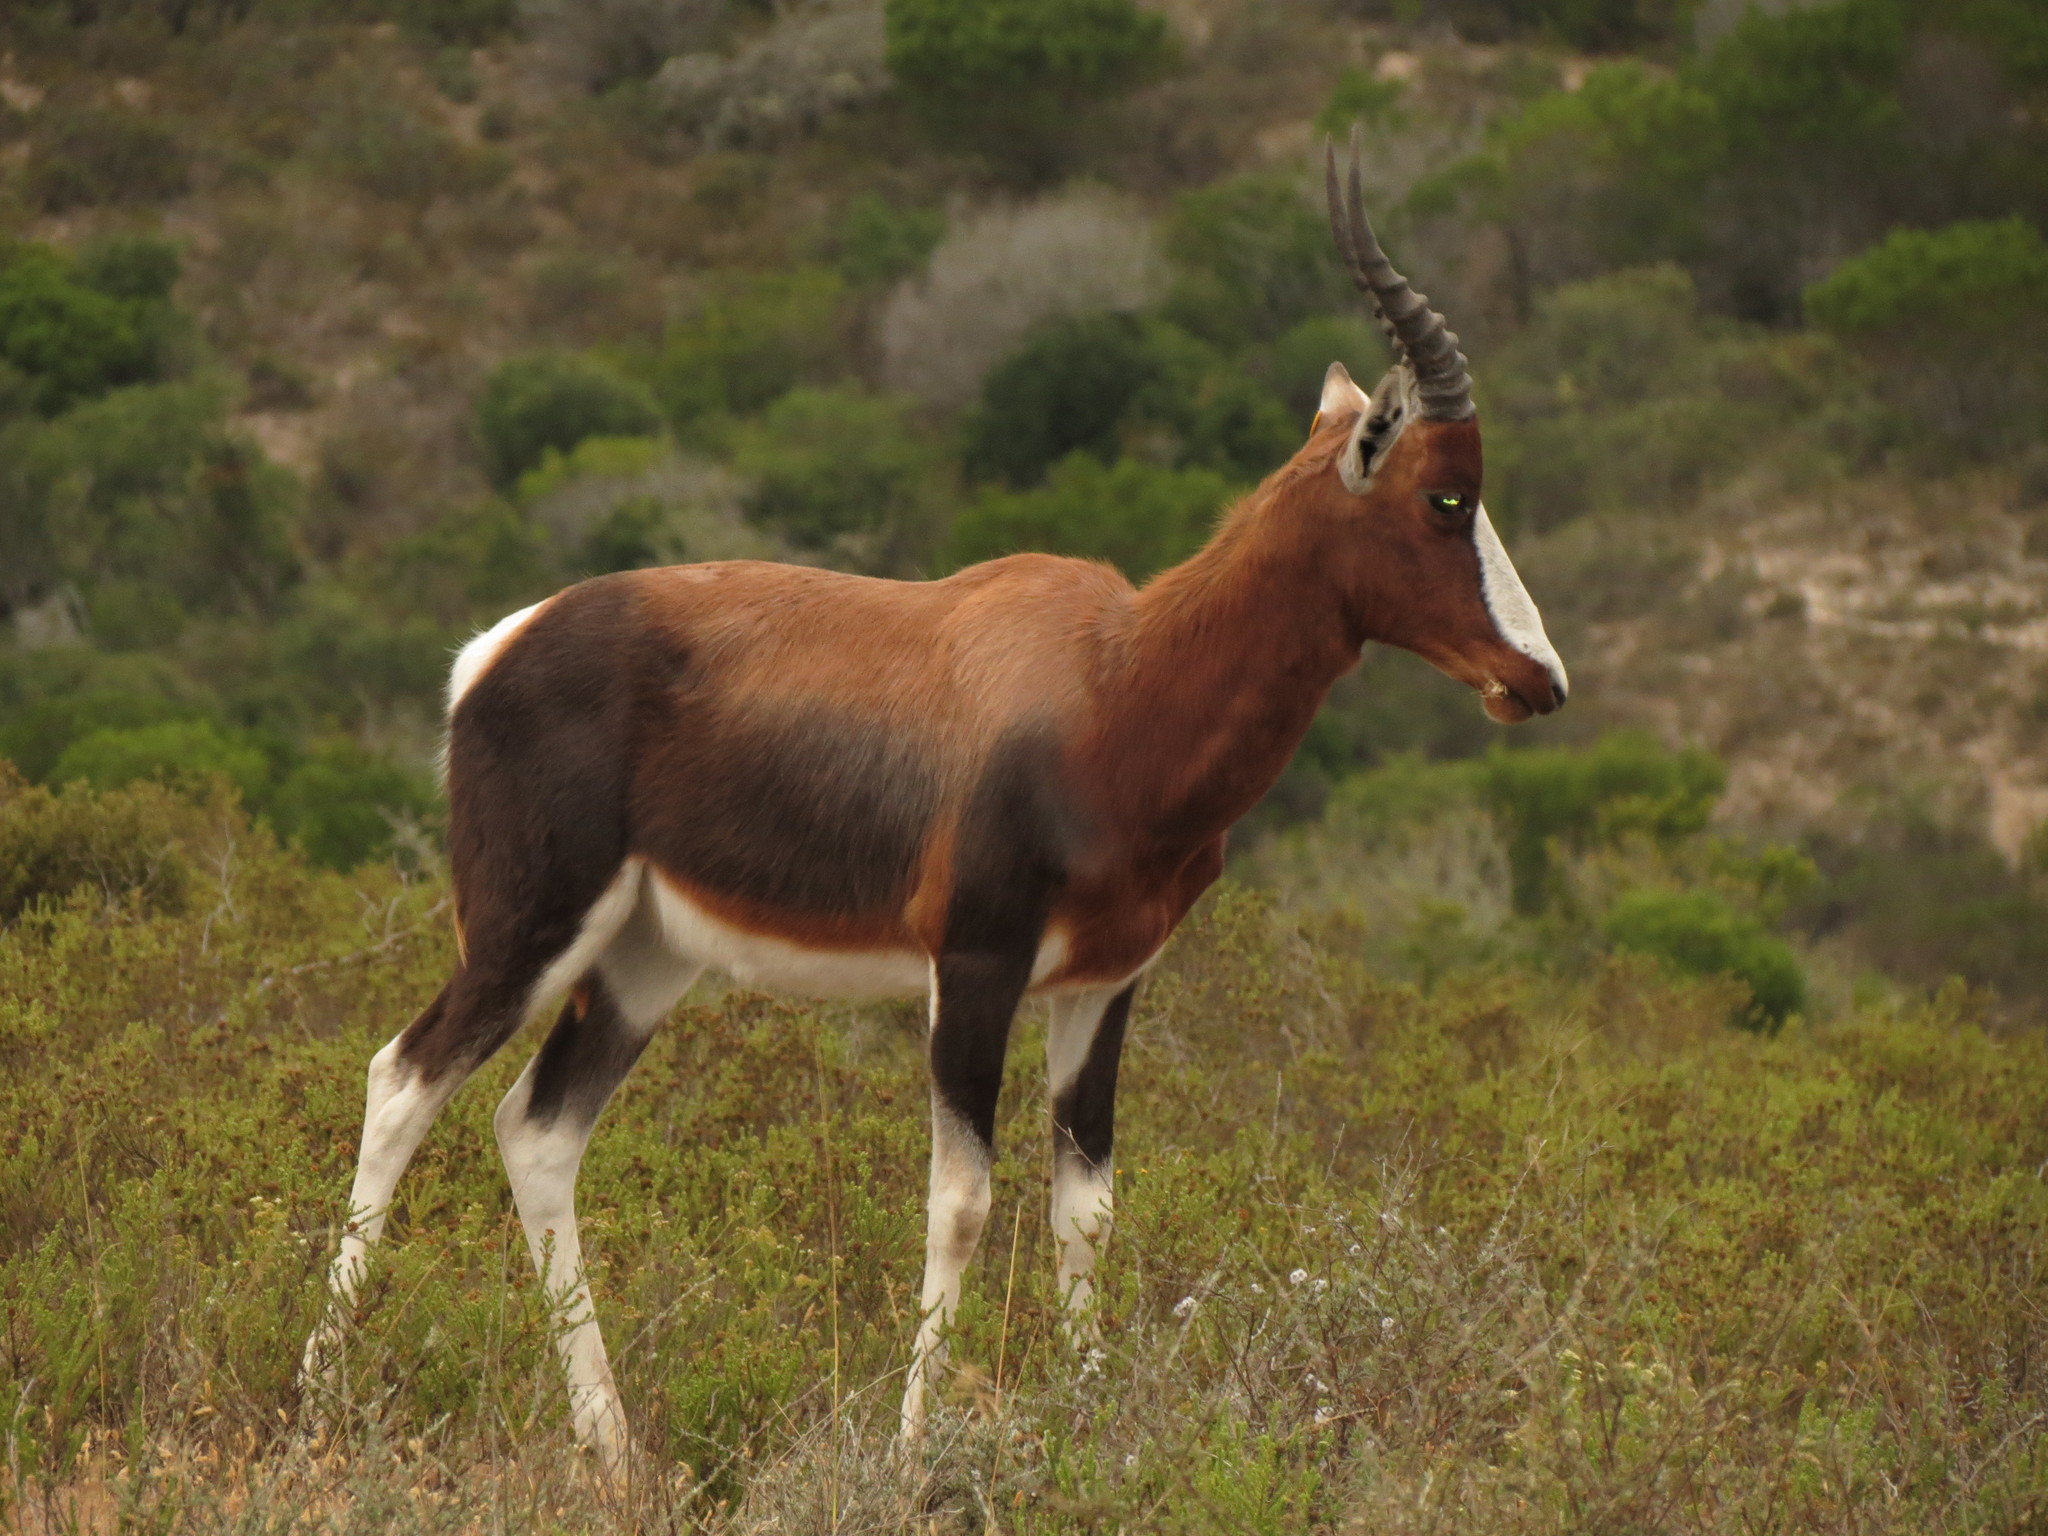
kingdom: Animalia
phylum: Chordata
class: Mammalia
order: Artiodactyla
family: Bovidae
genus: Damaliscus
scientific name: Damaliscus pygargus
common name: Bontebok
